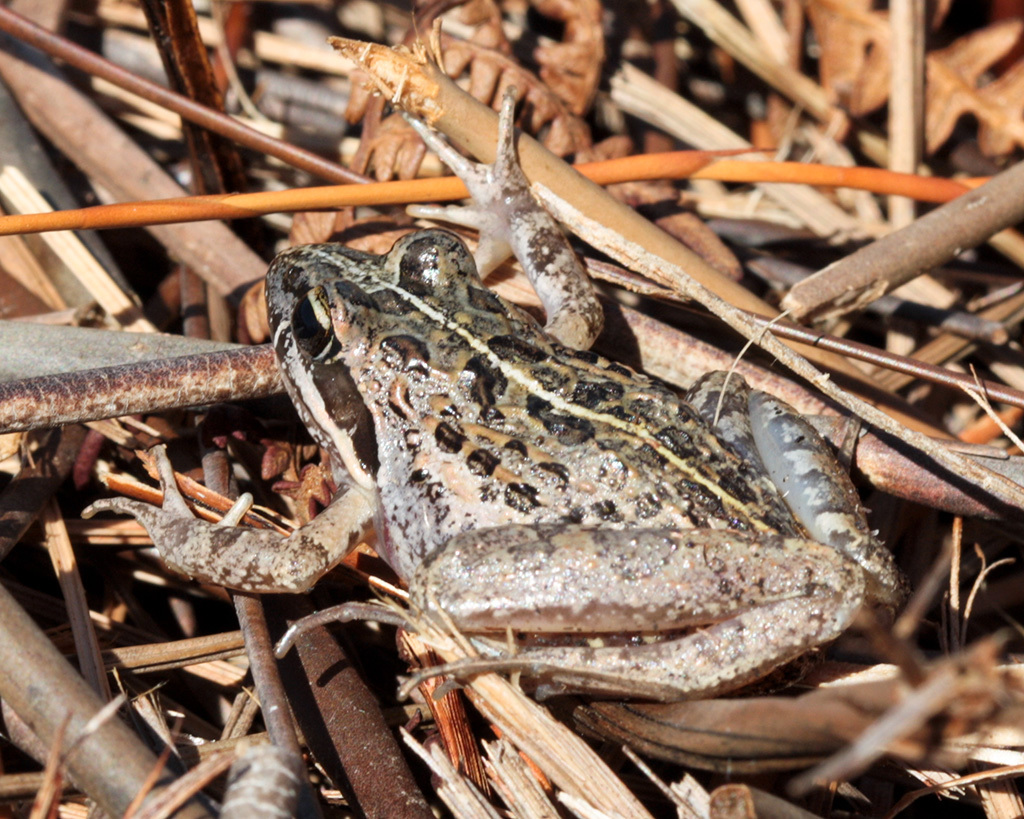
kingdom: Animalia
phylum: Chordata
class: Amphibia
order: Anura
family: Pyxicephalidae
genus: Strongylopus
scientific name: Strongylopus grayii
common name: Gray's stream frog
